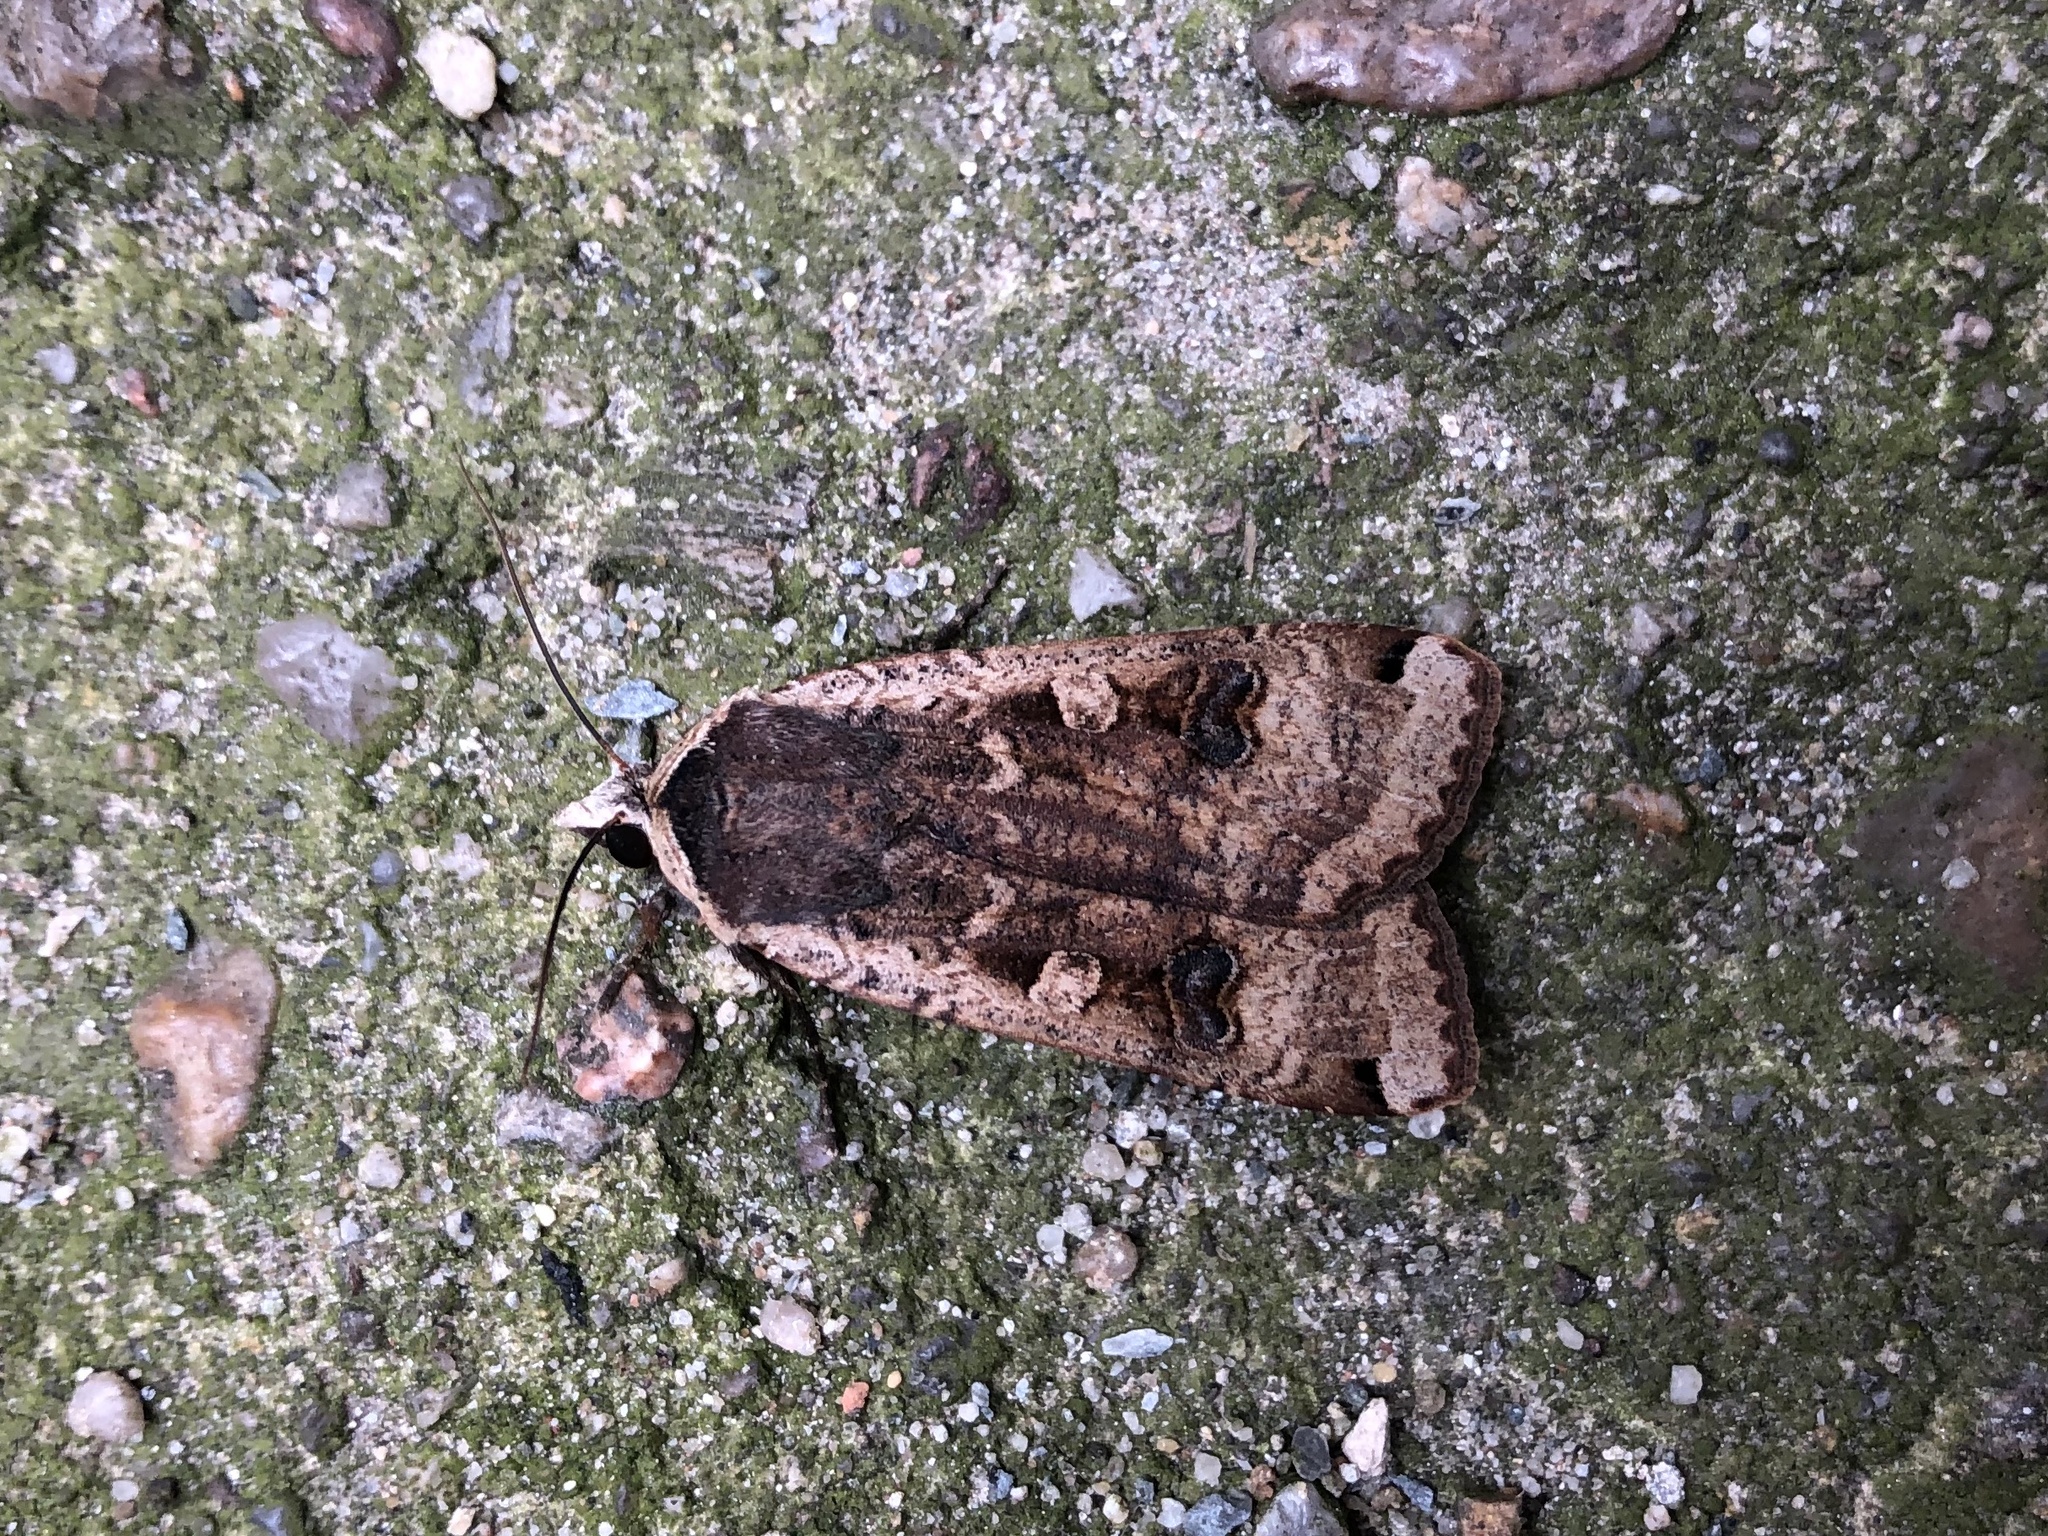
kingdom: Animalia
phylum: Arthropoda
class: Insecta
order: Lepidoptera
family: Noctuidae
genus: Noctua
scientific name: Noctua pronuba
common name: Large yellow underwing
